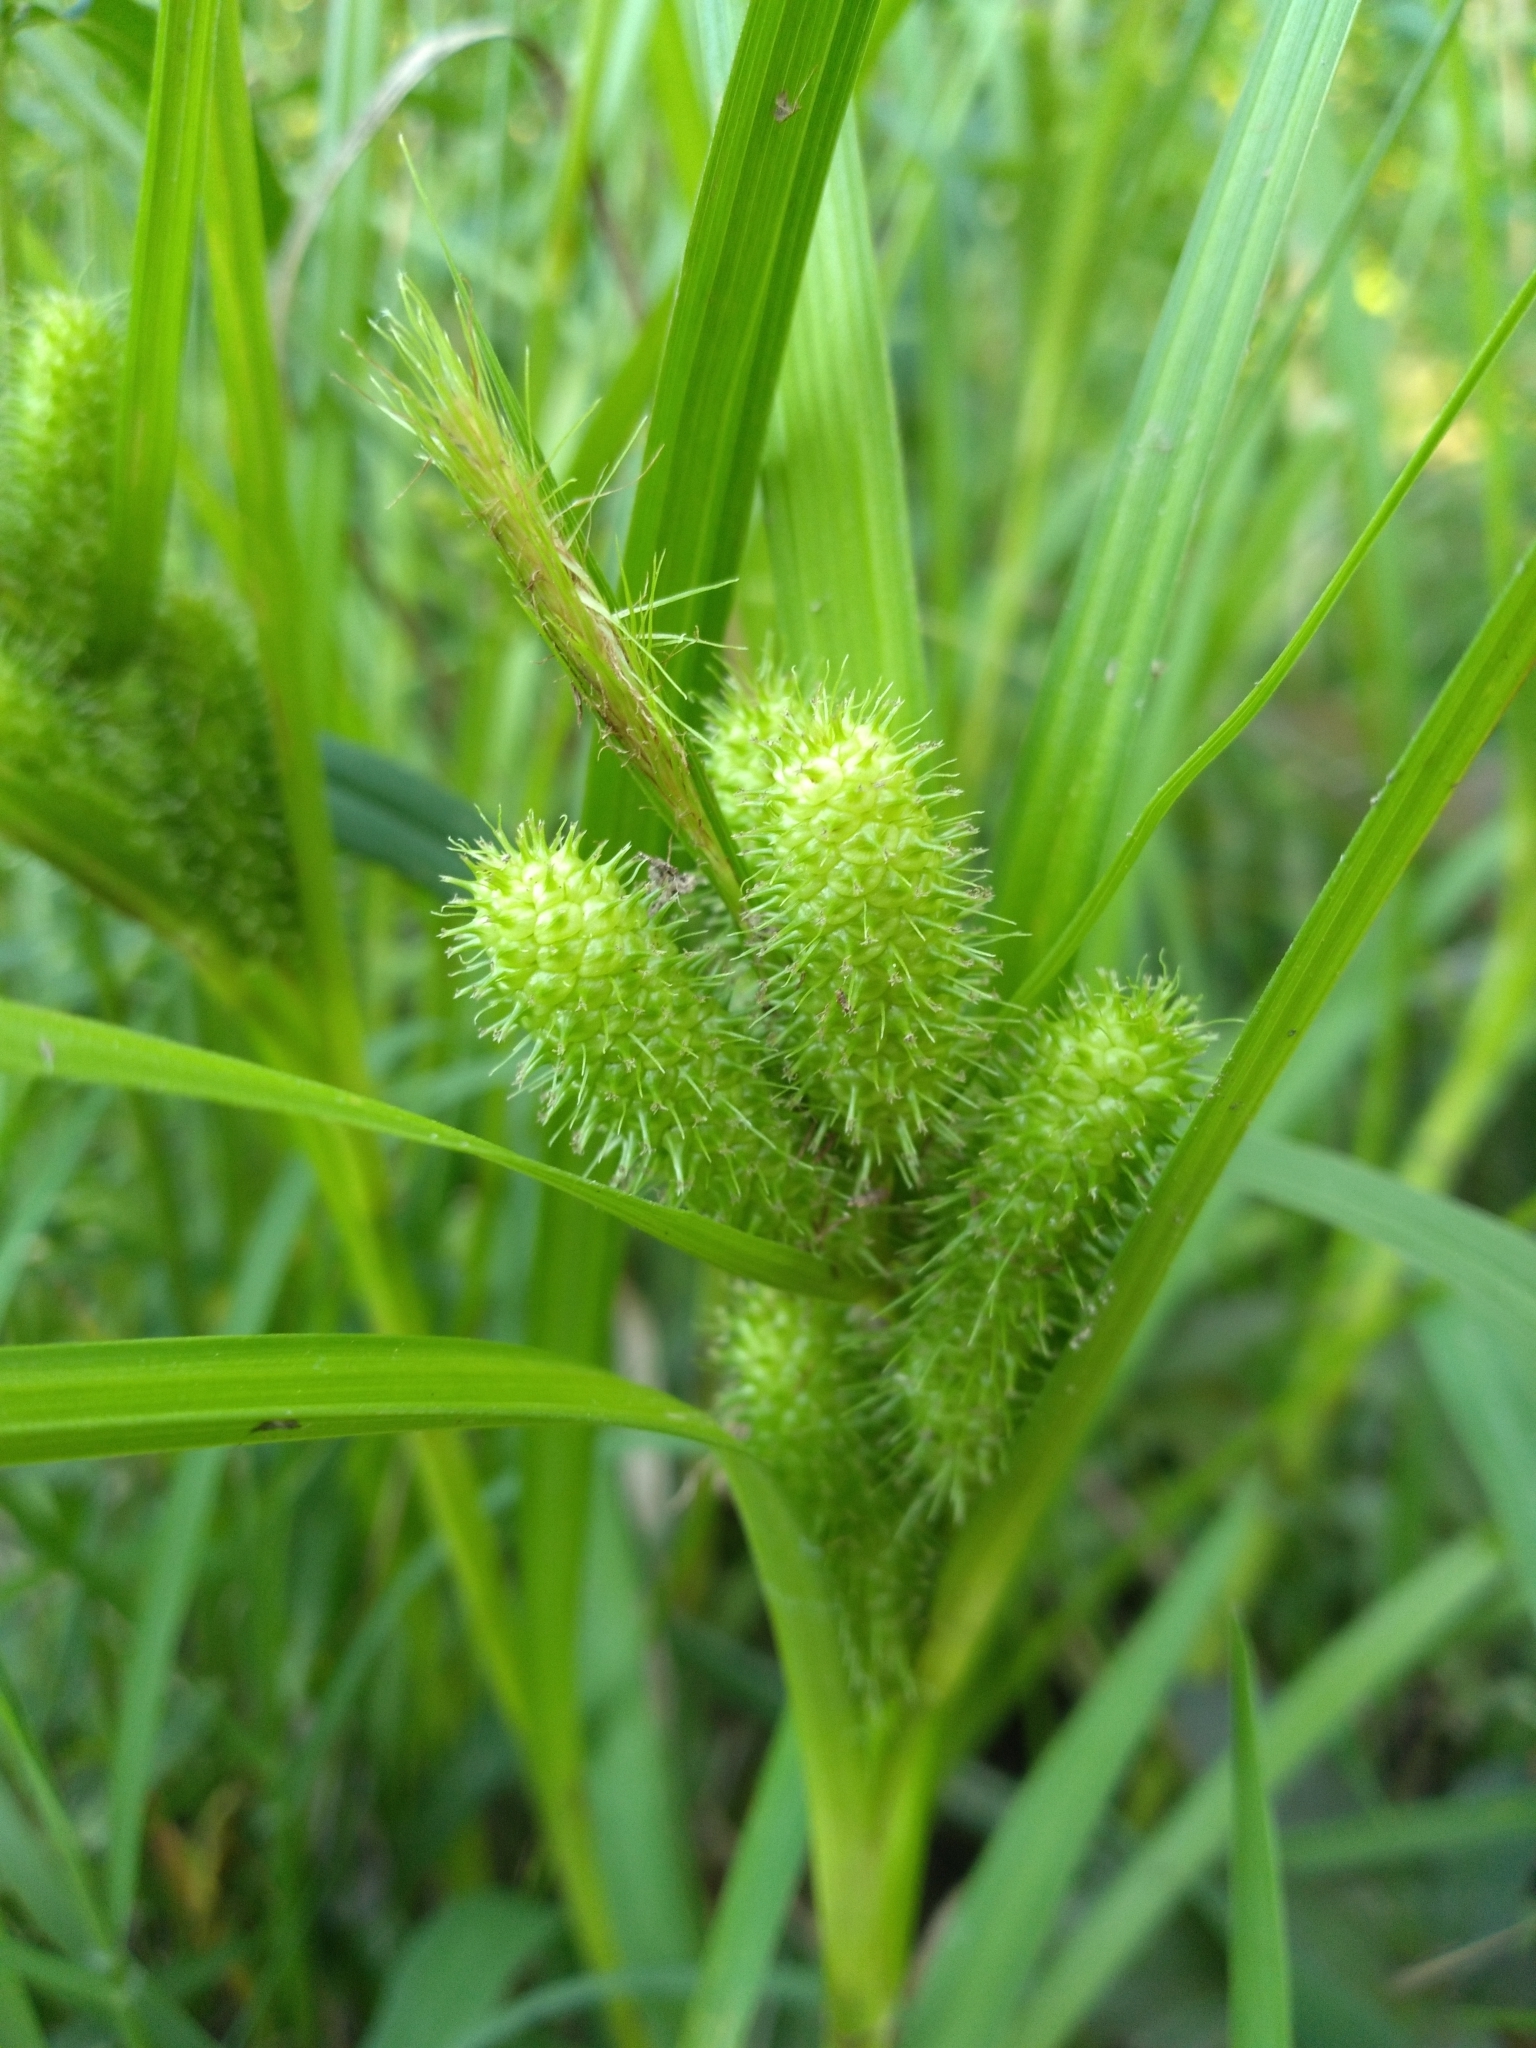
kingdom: Plantae
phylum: Tracheophyta
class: Liliopsida
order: Poales
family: Cyperaceae
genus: Carex
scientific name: Carex frankii
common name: Frank's sedge
